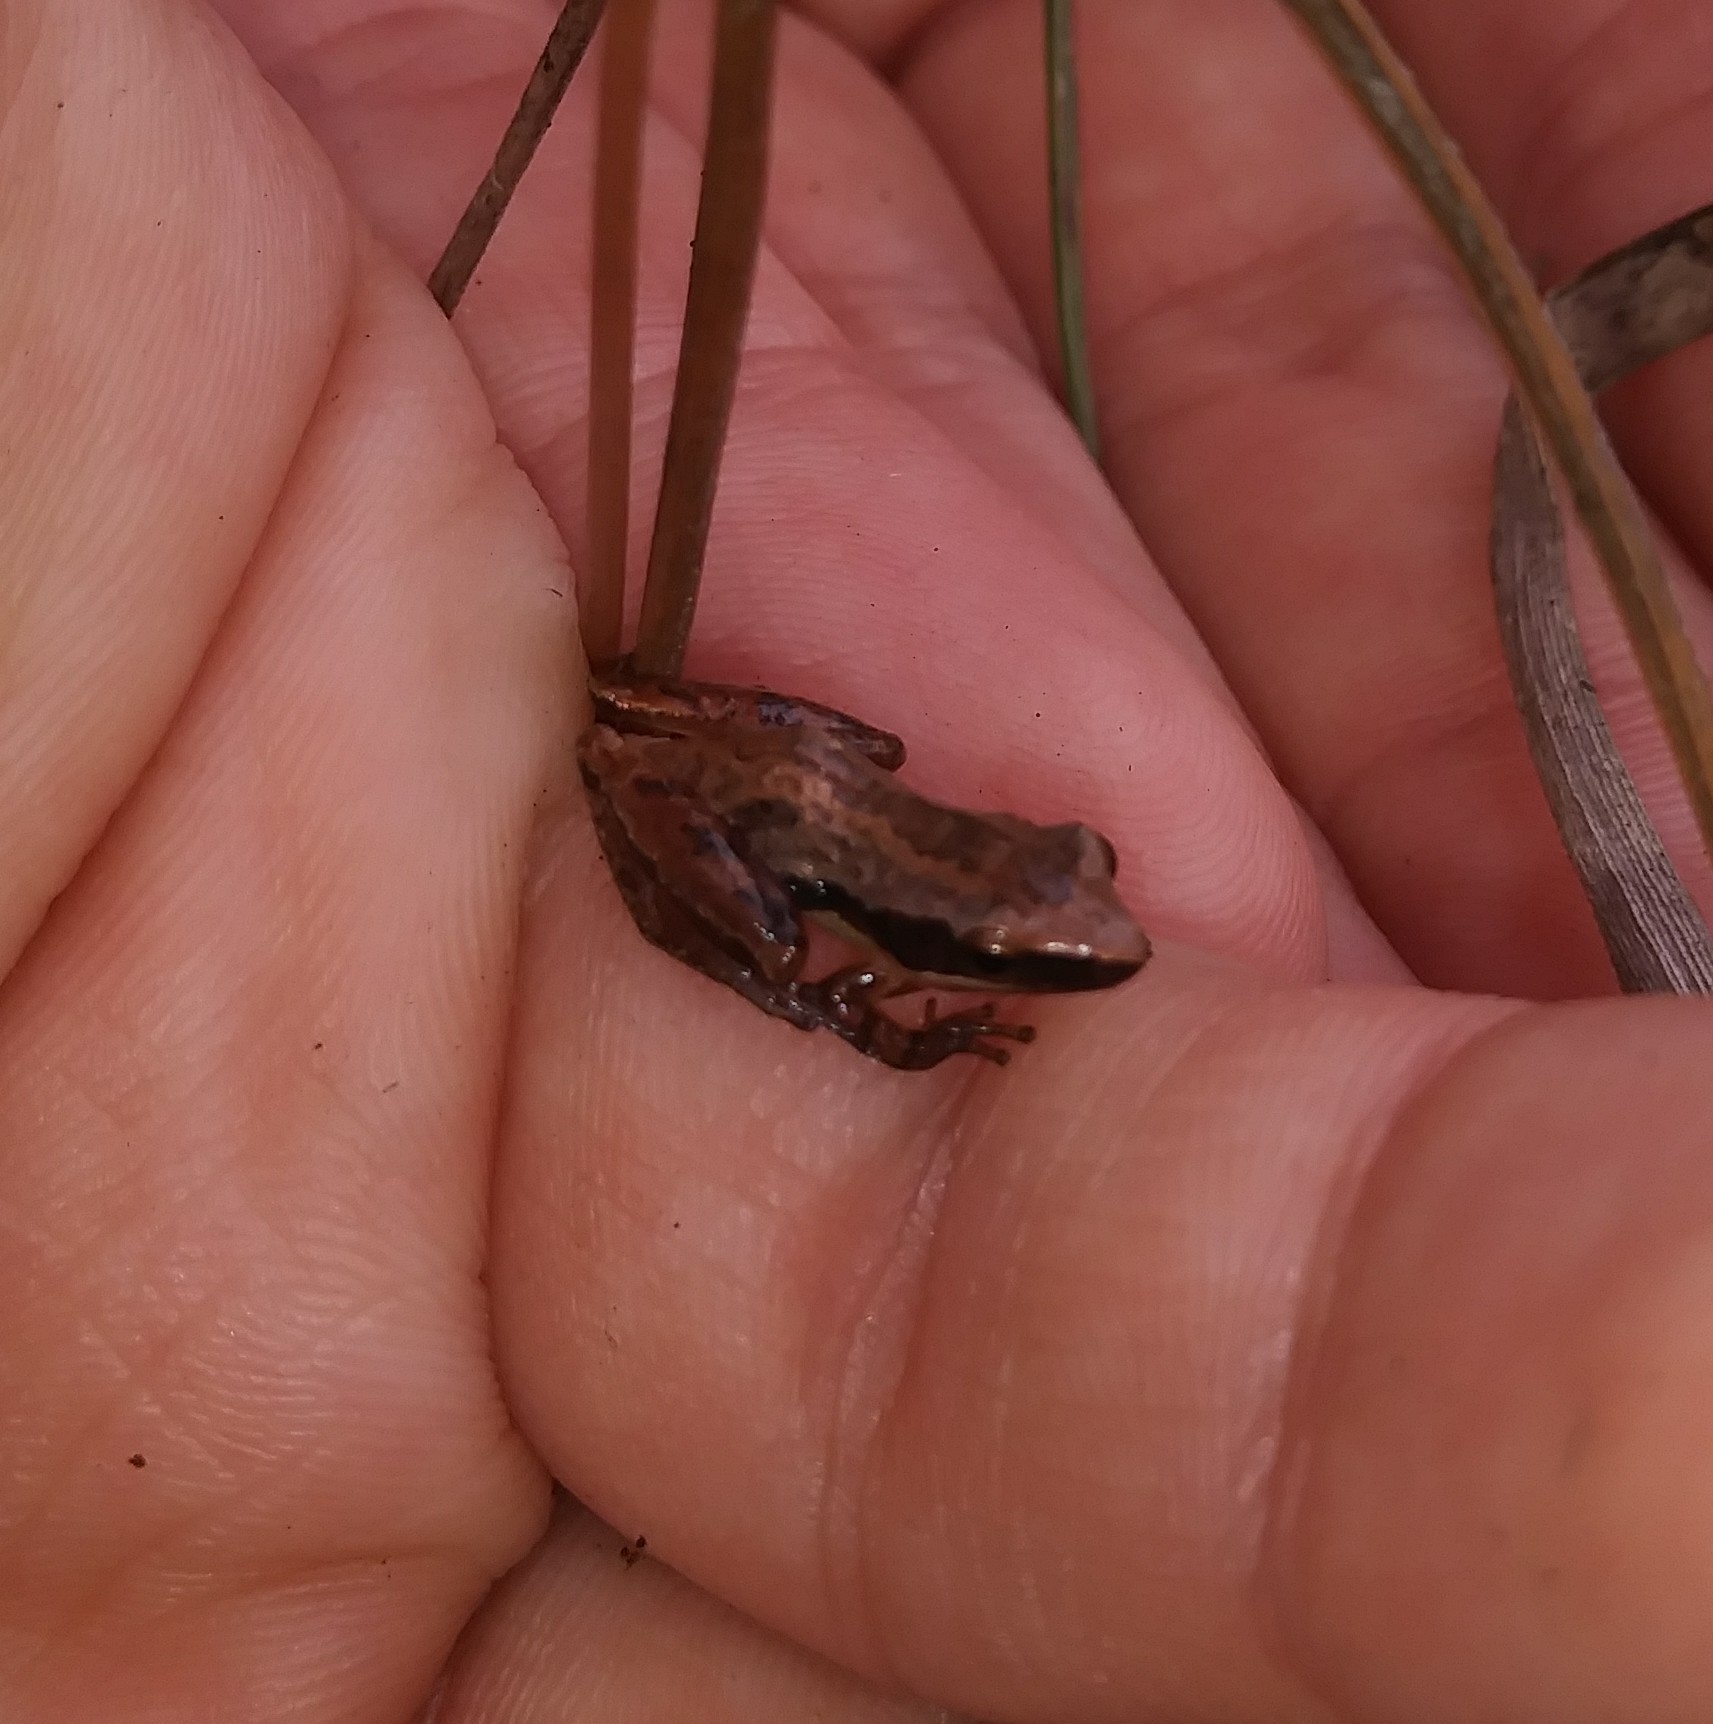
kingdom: Animalia
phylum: Chordata
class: Amphibia
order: Anura
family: Hylidae
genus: Pseudacris
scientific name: Pseudacris ocularis
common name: Little grass frog
